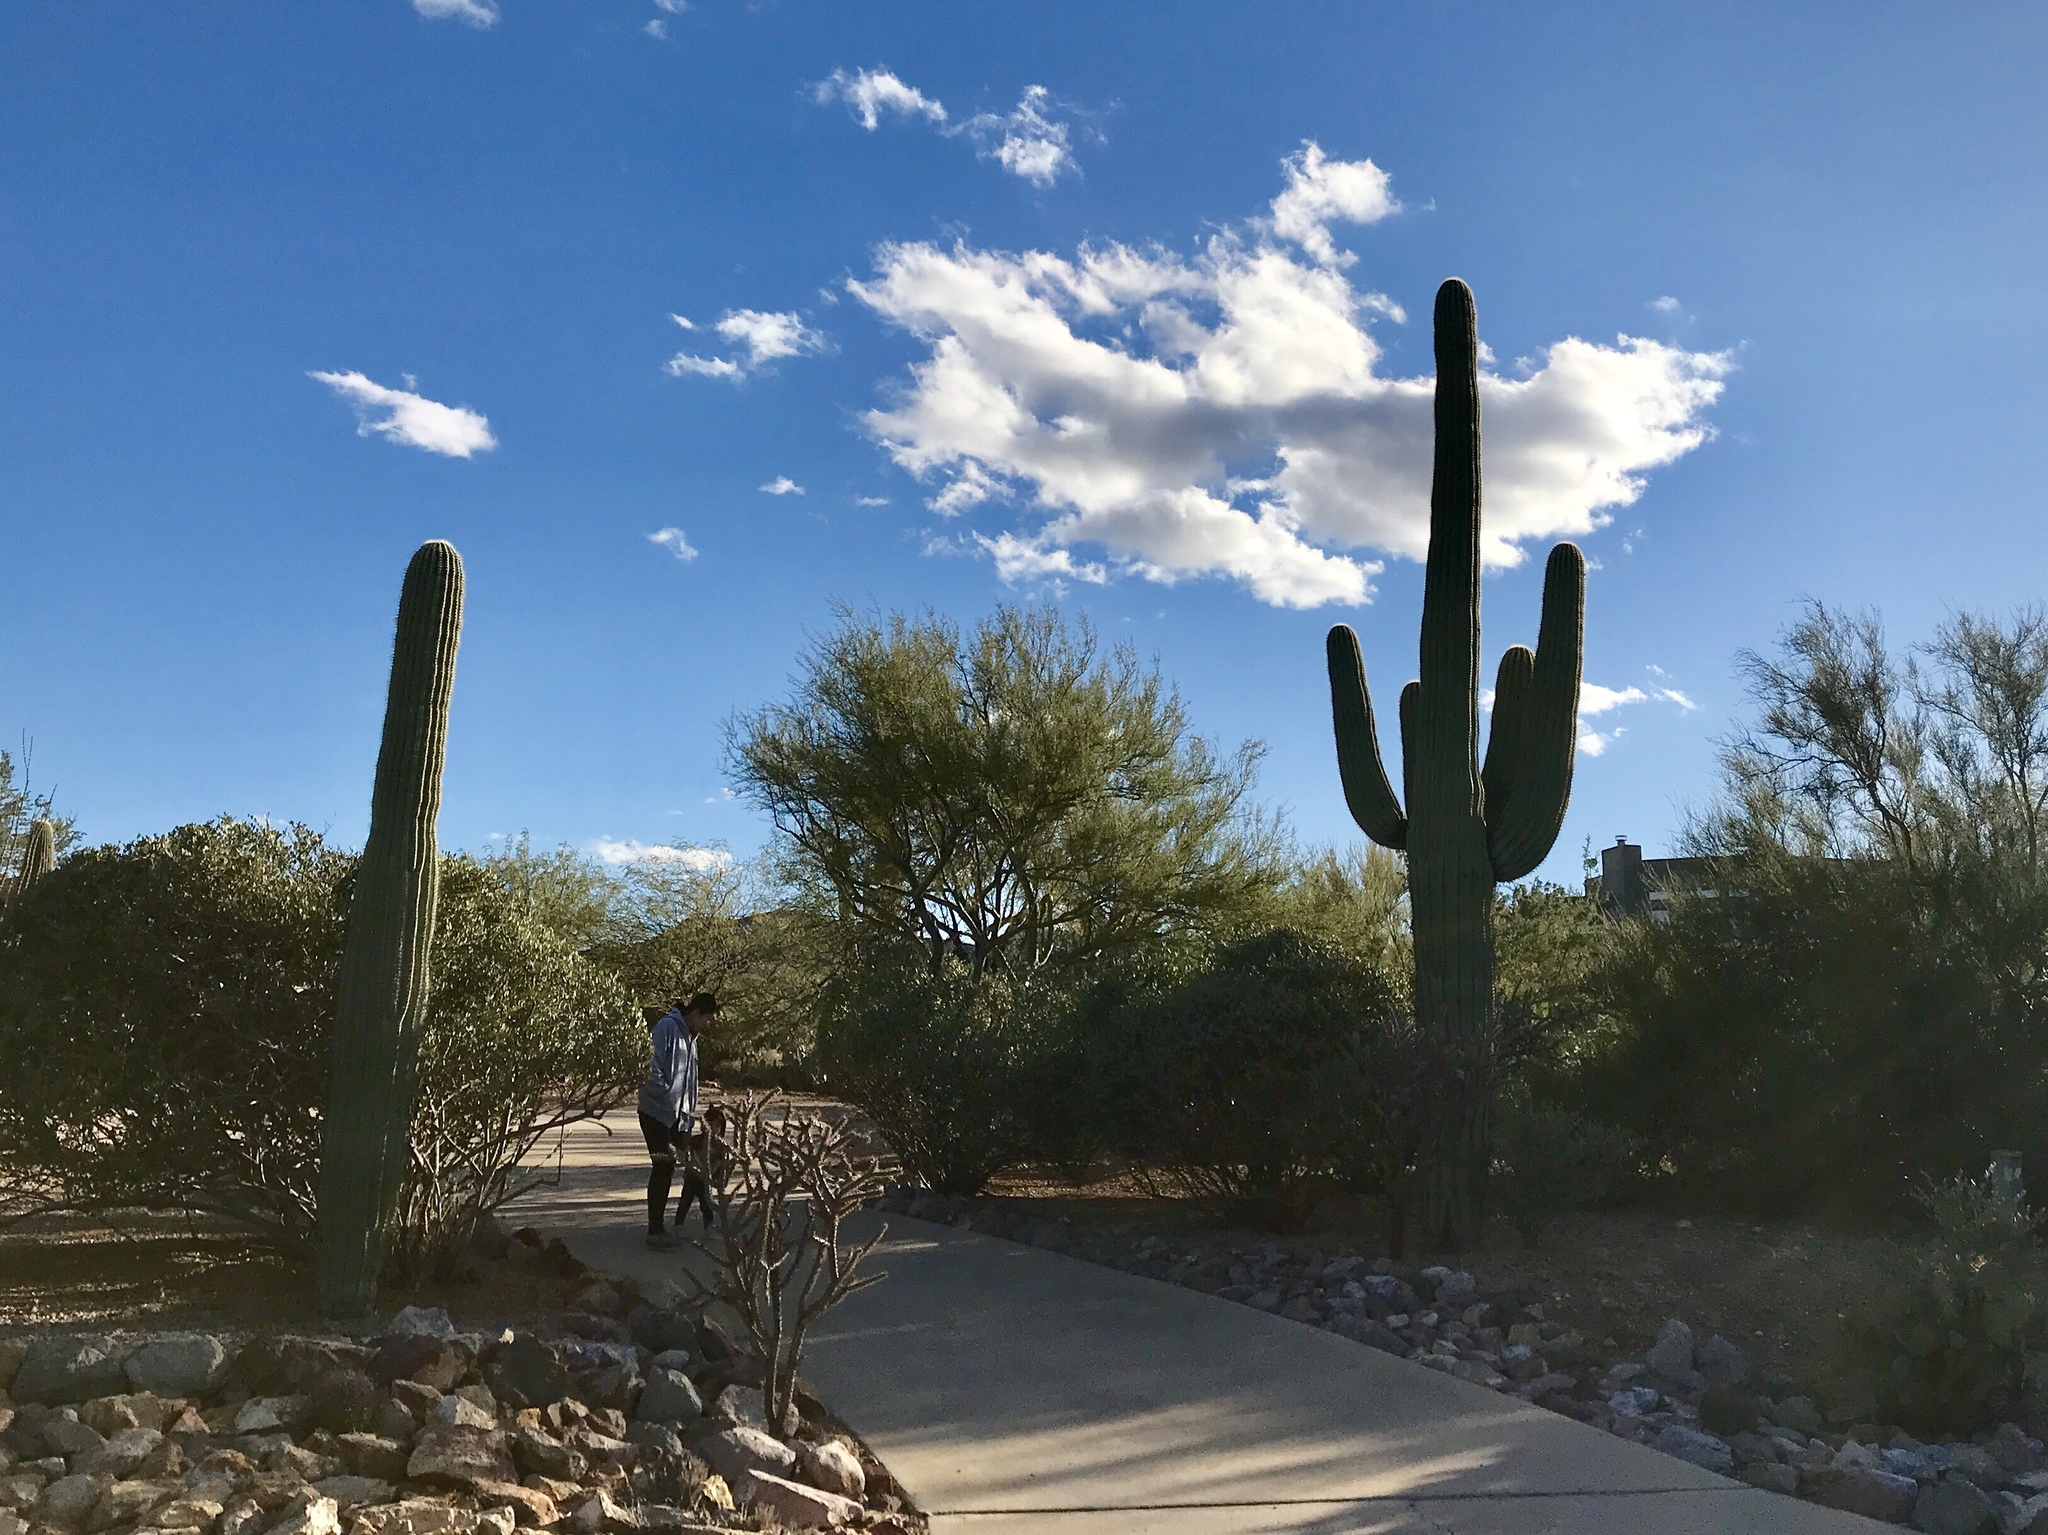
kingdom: Plantae
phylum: Tracheophyta
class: Magnoliopsida
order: Caryophyllales
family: Cactaceae
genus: Carnegiea
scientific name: Carnegiea gigantea
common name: Saguaro
